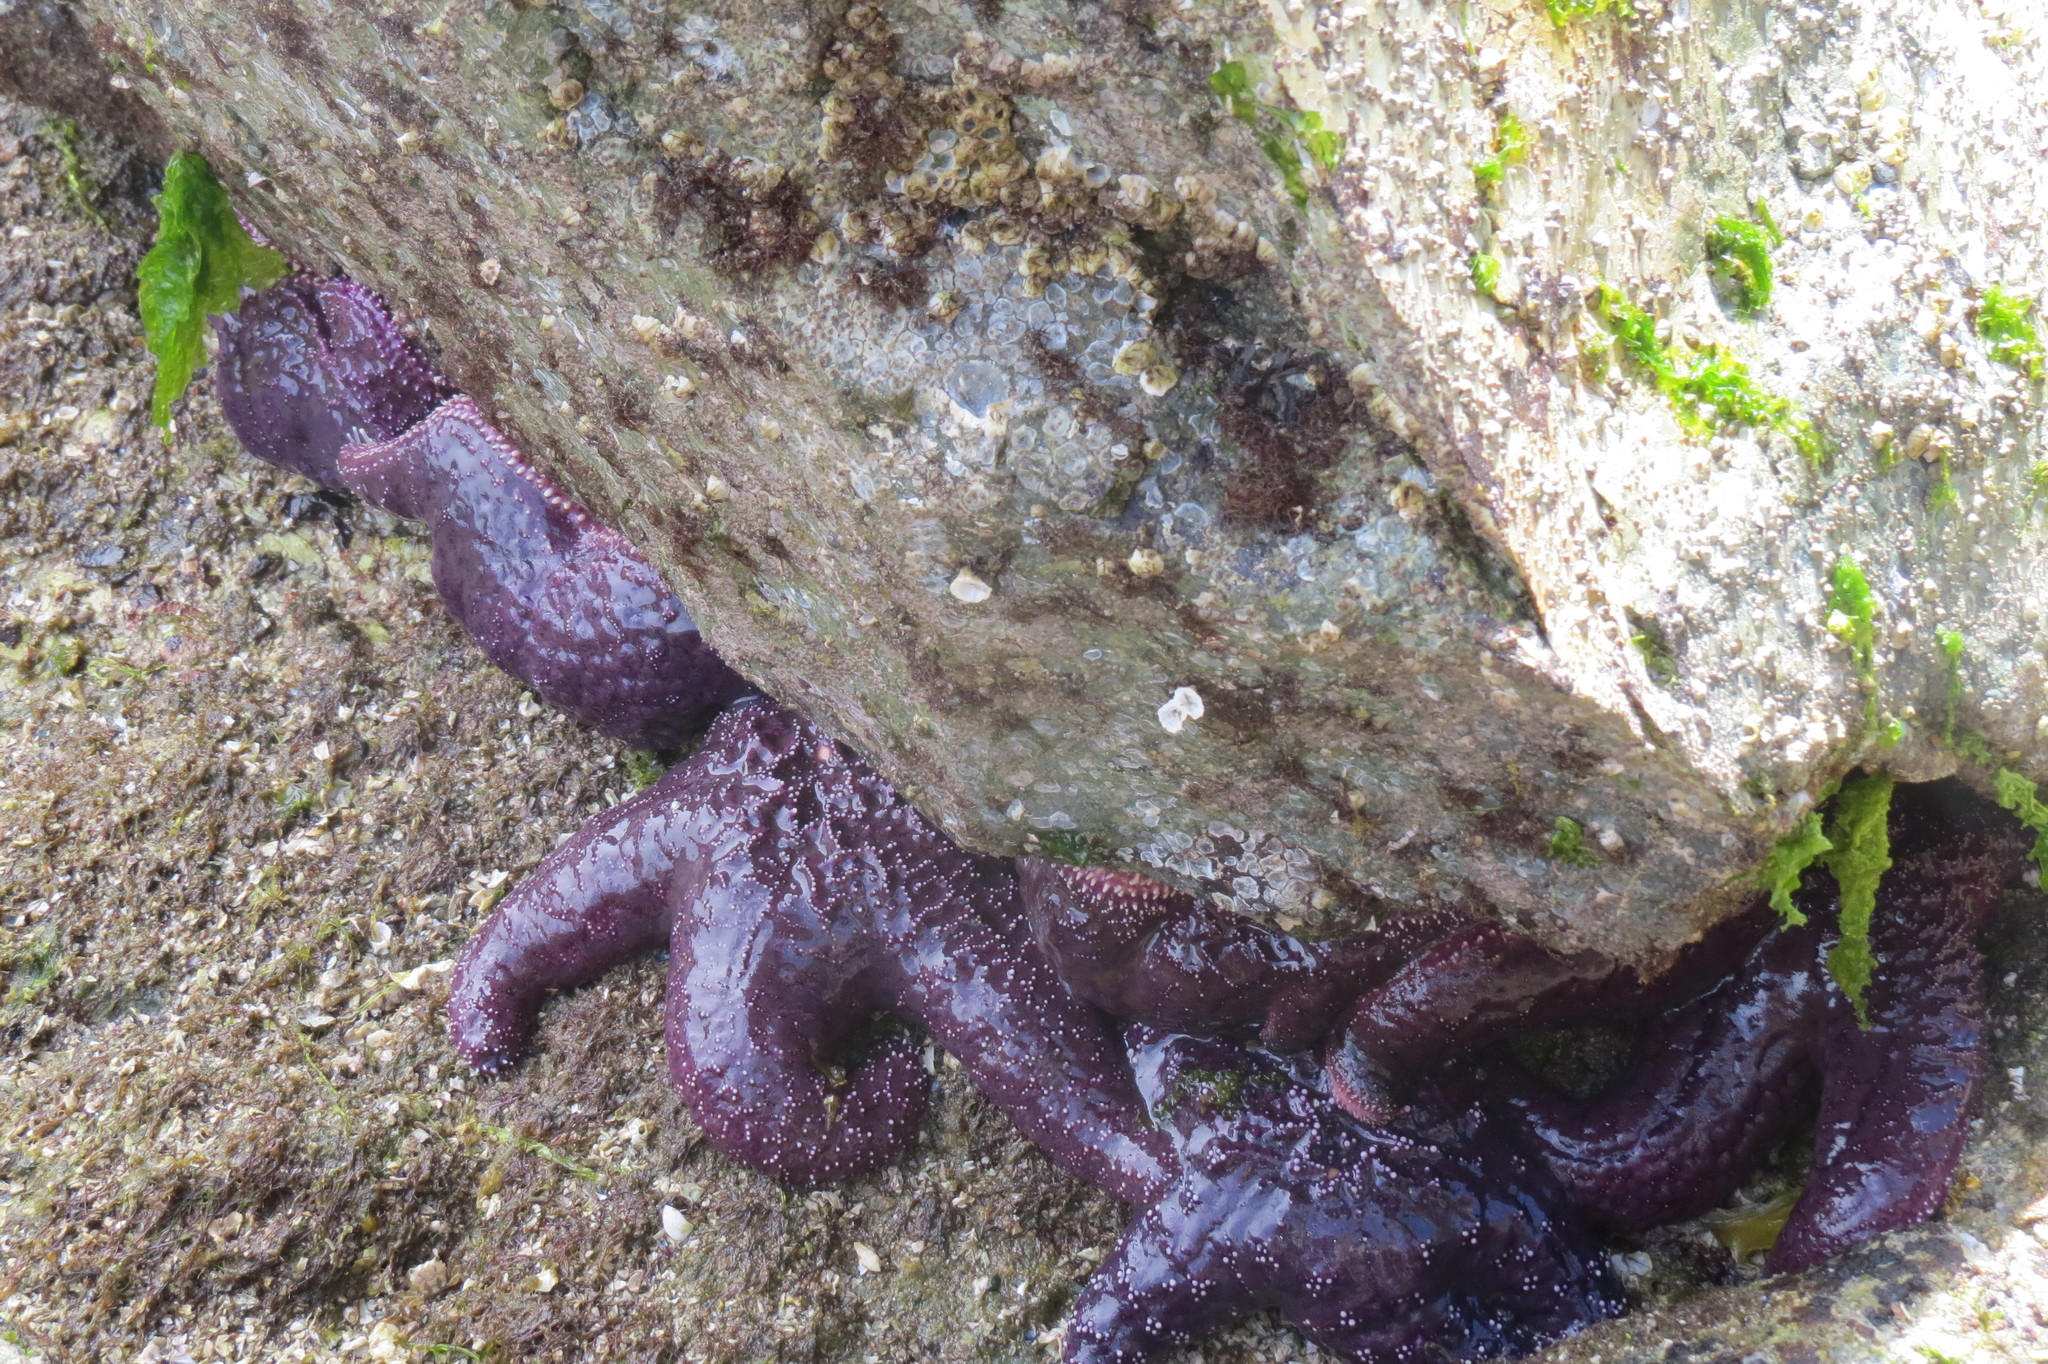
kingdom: Animalia
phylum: Echinodermata
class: Asteroidea
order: Forcipulatida
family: Asteriidae
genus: Pisaster
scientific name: Pisaster ochraceus
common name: Ochre stars
